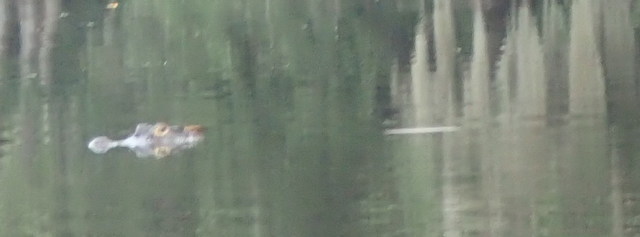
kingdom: Animalia
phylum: Chordata
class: Crocodylia
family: Alligatoridae
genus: Alligator
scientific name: Alligator mississippiensis
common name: American alligator
